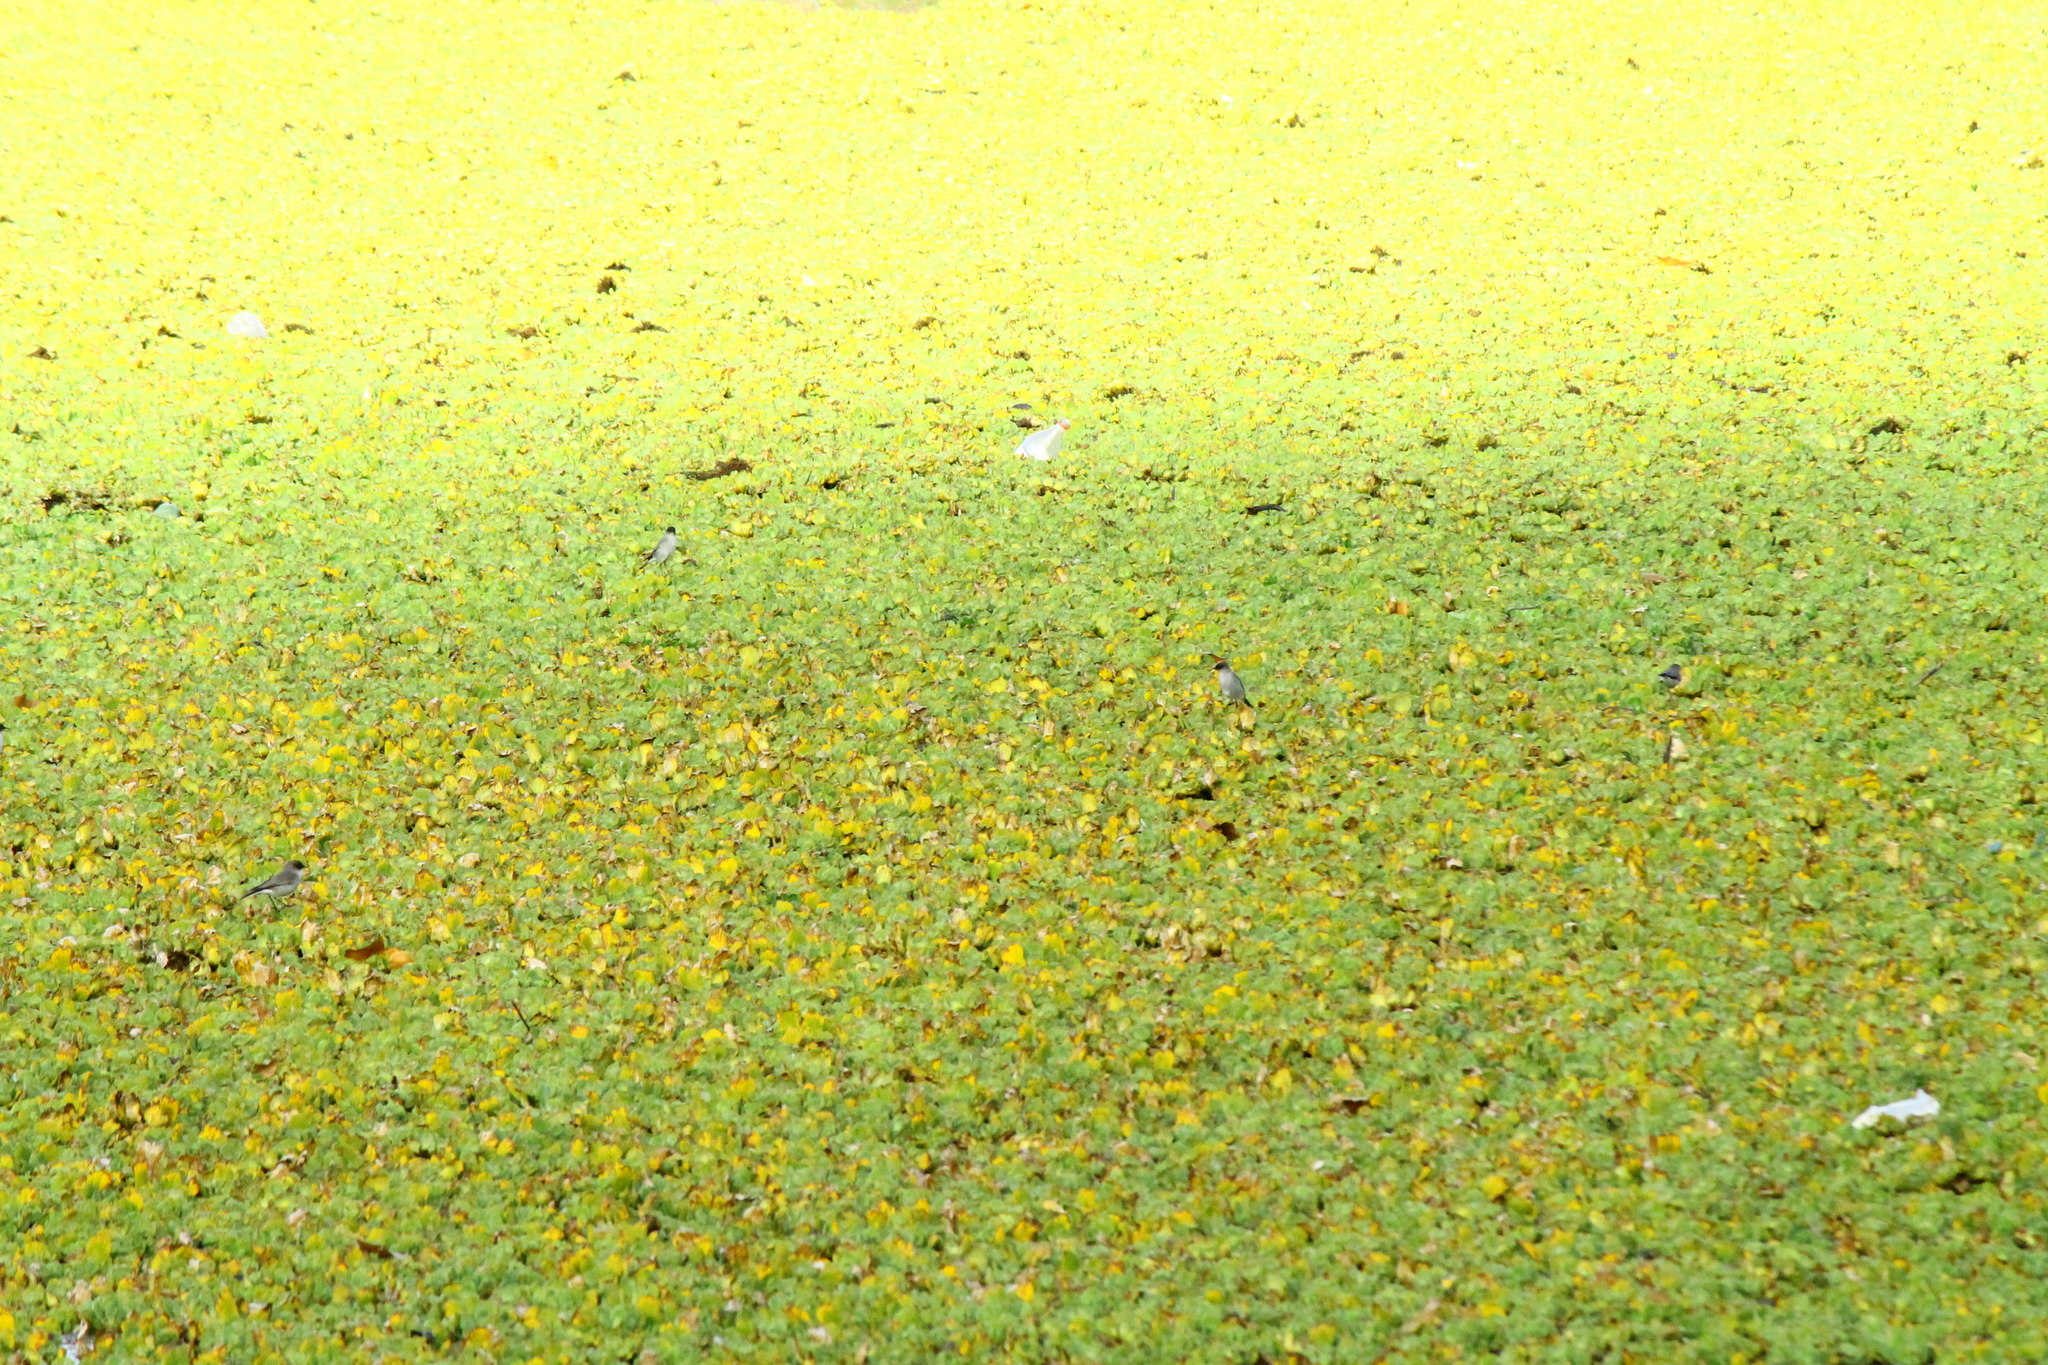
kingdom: Animalia
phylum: Chordata
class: Aves
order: Passeriformes
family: Tyrannidae
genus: Muscisaxicola
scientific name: Muscisaxicola maclovianus
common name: Dark-faced ground tyrant
